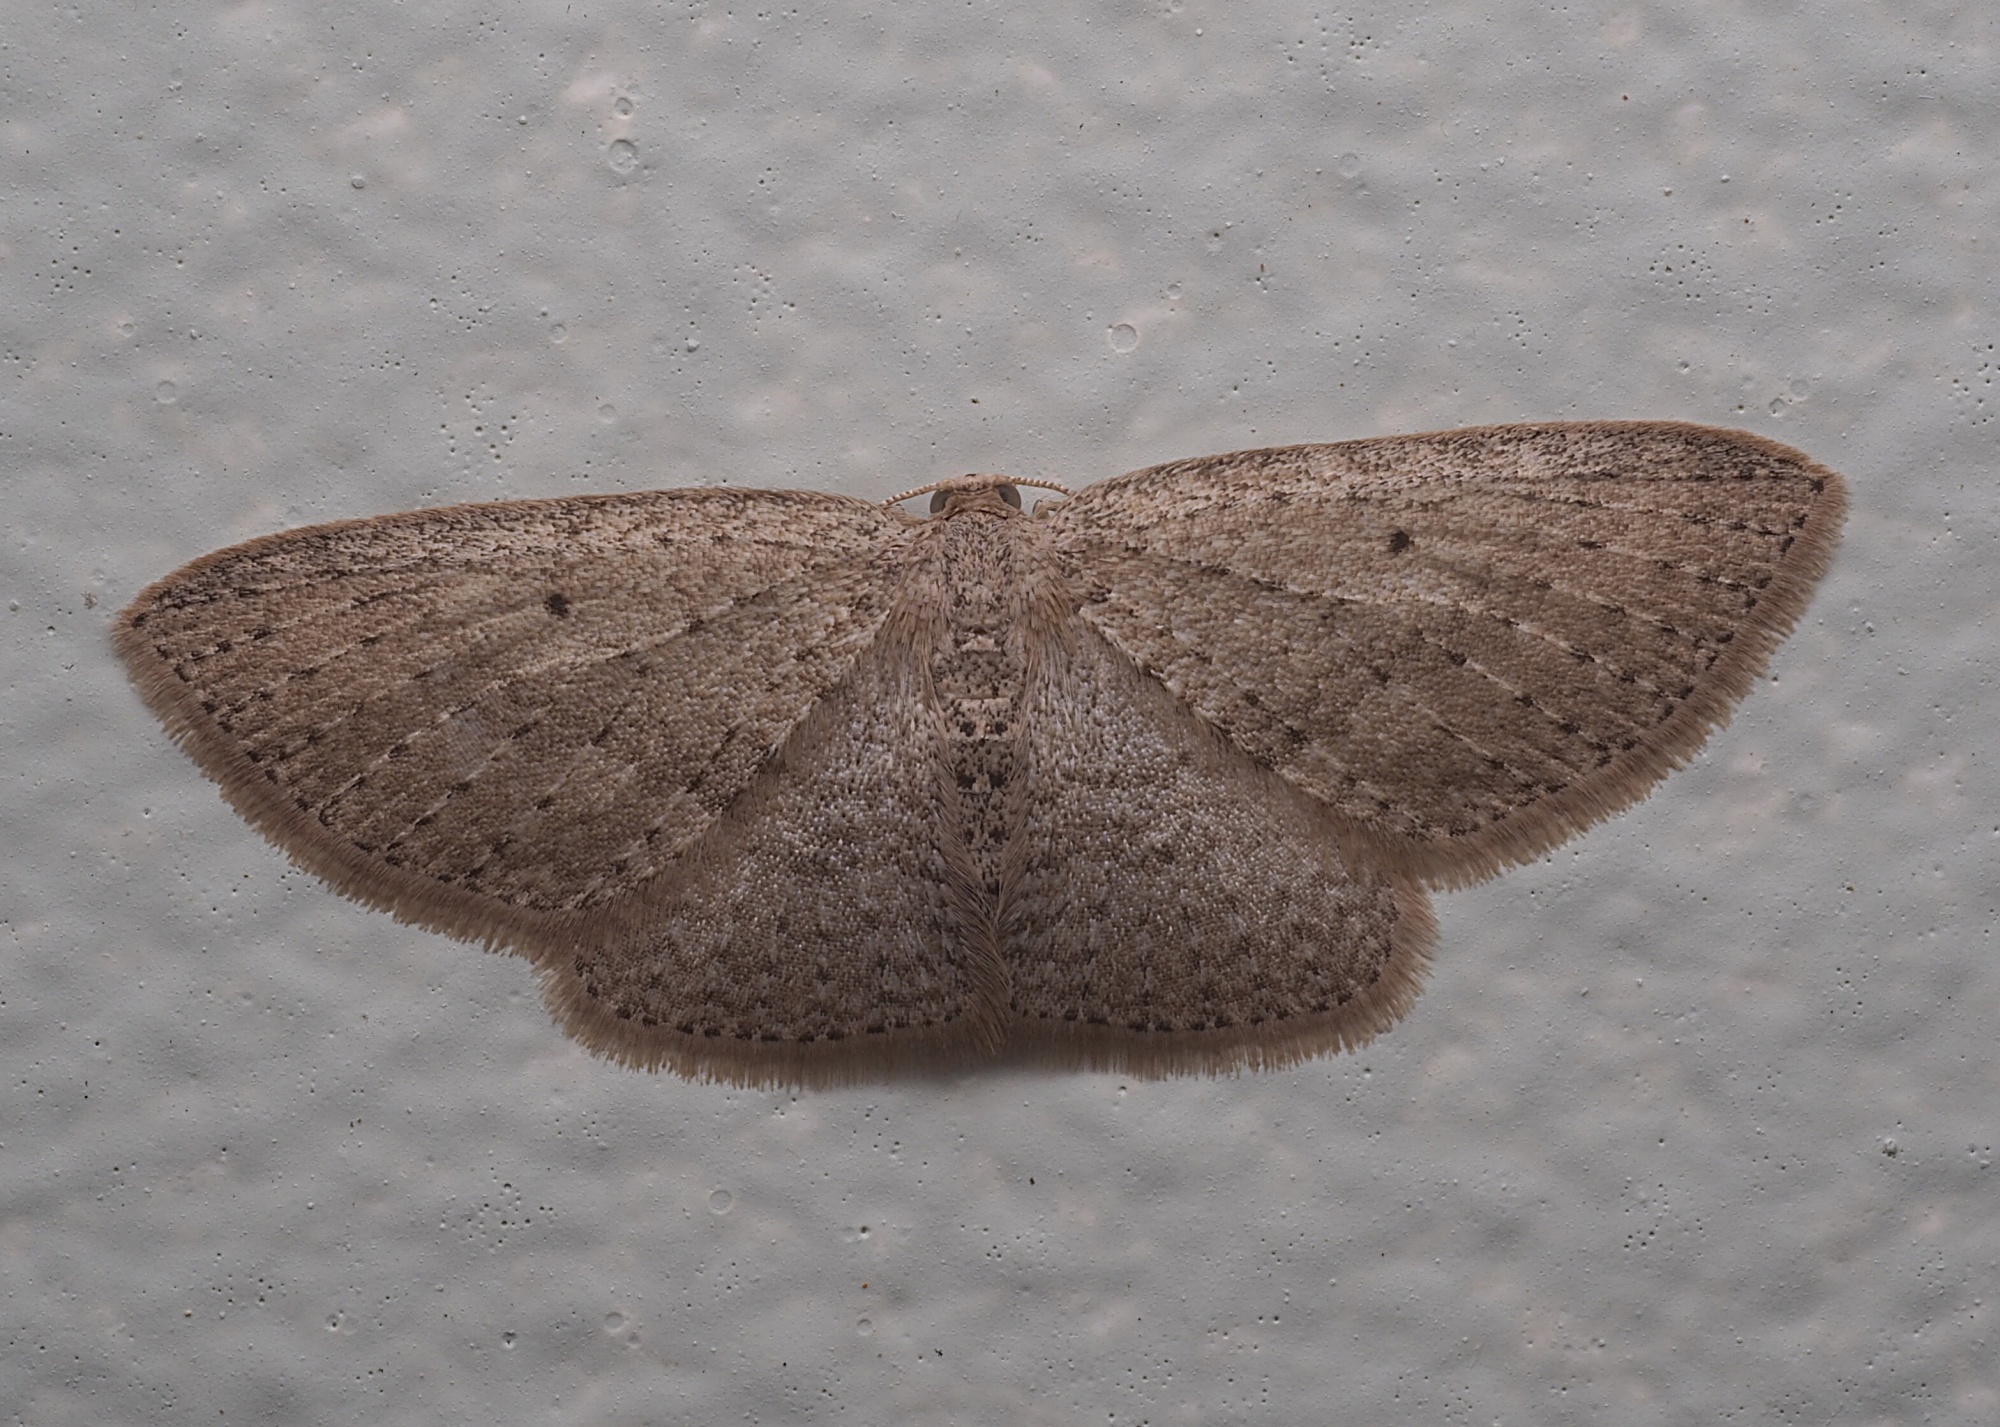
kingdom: Animalia
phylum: Arthropoda
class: Insecta
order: Lepidoptera
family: Geometridae
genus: Poecilasthena
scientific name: Poecilasthena schistaria
